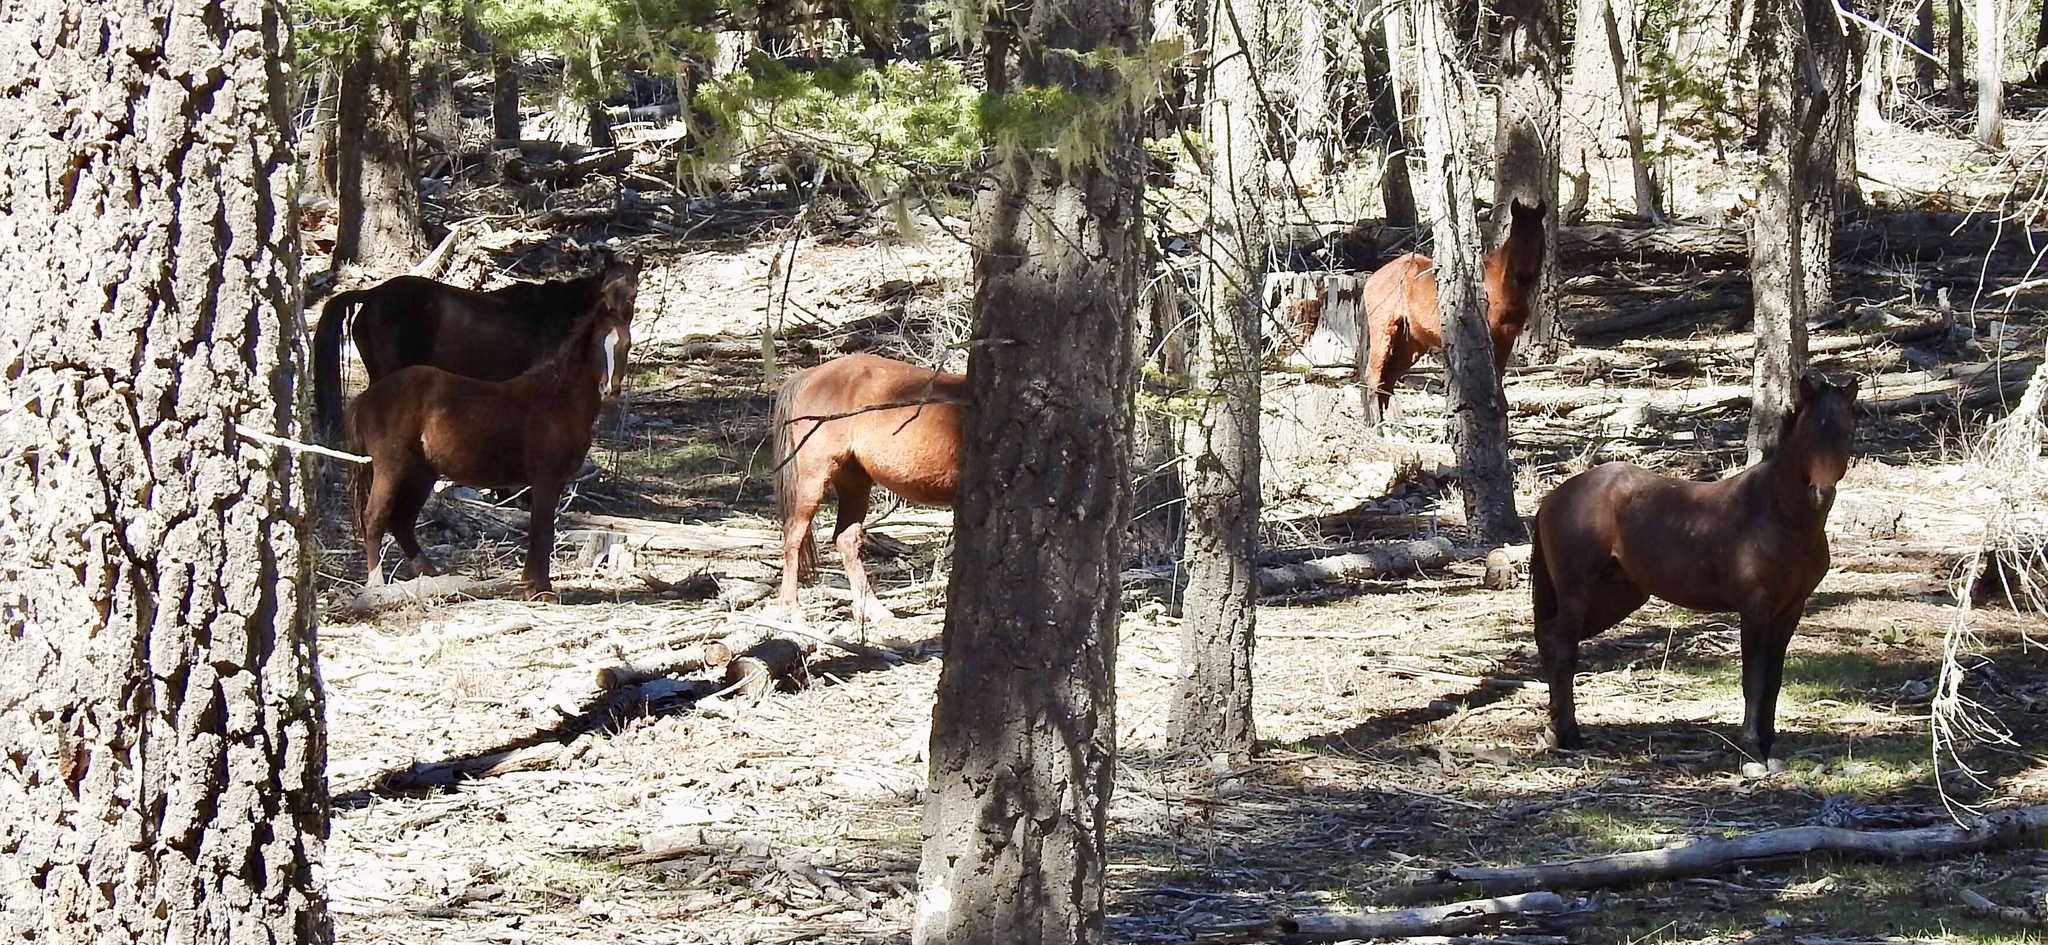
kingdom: Animalia
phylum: Chordata
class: Mammalia
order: Perissodactyla
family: Equidae
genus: Equus
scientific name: Equus caballus
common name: Horse
